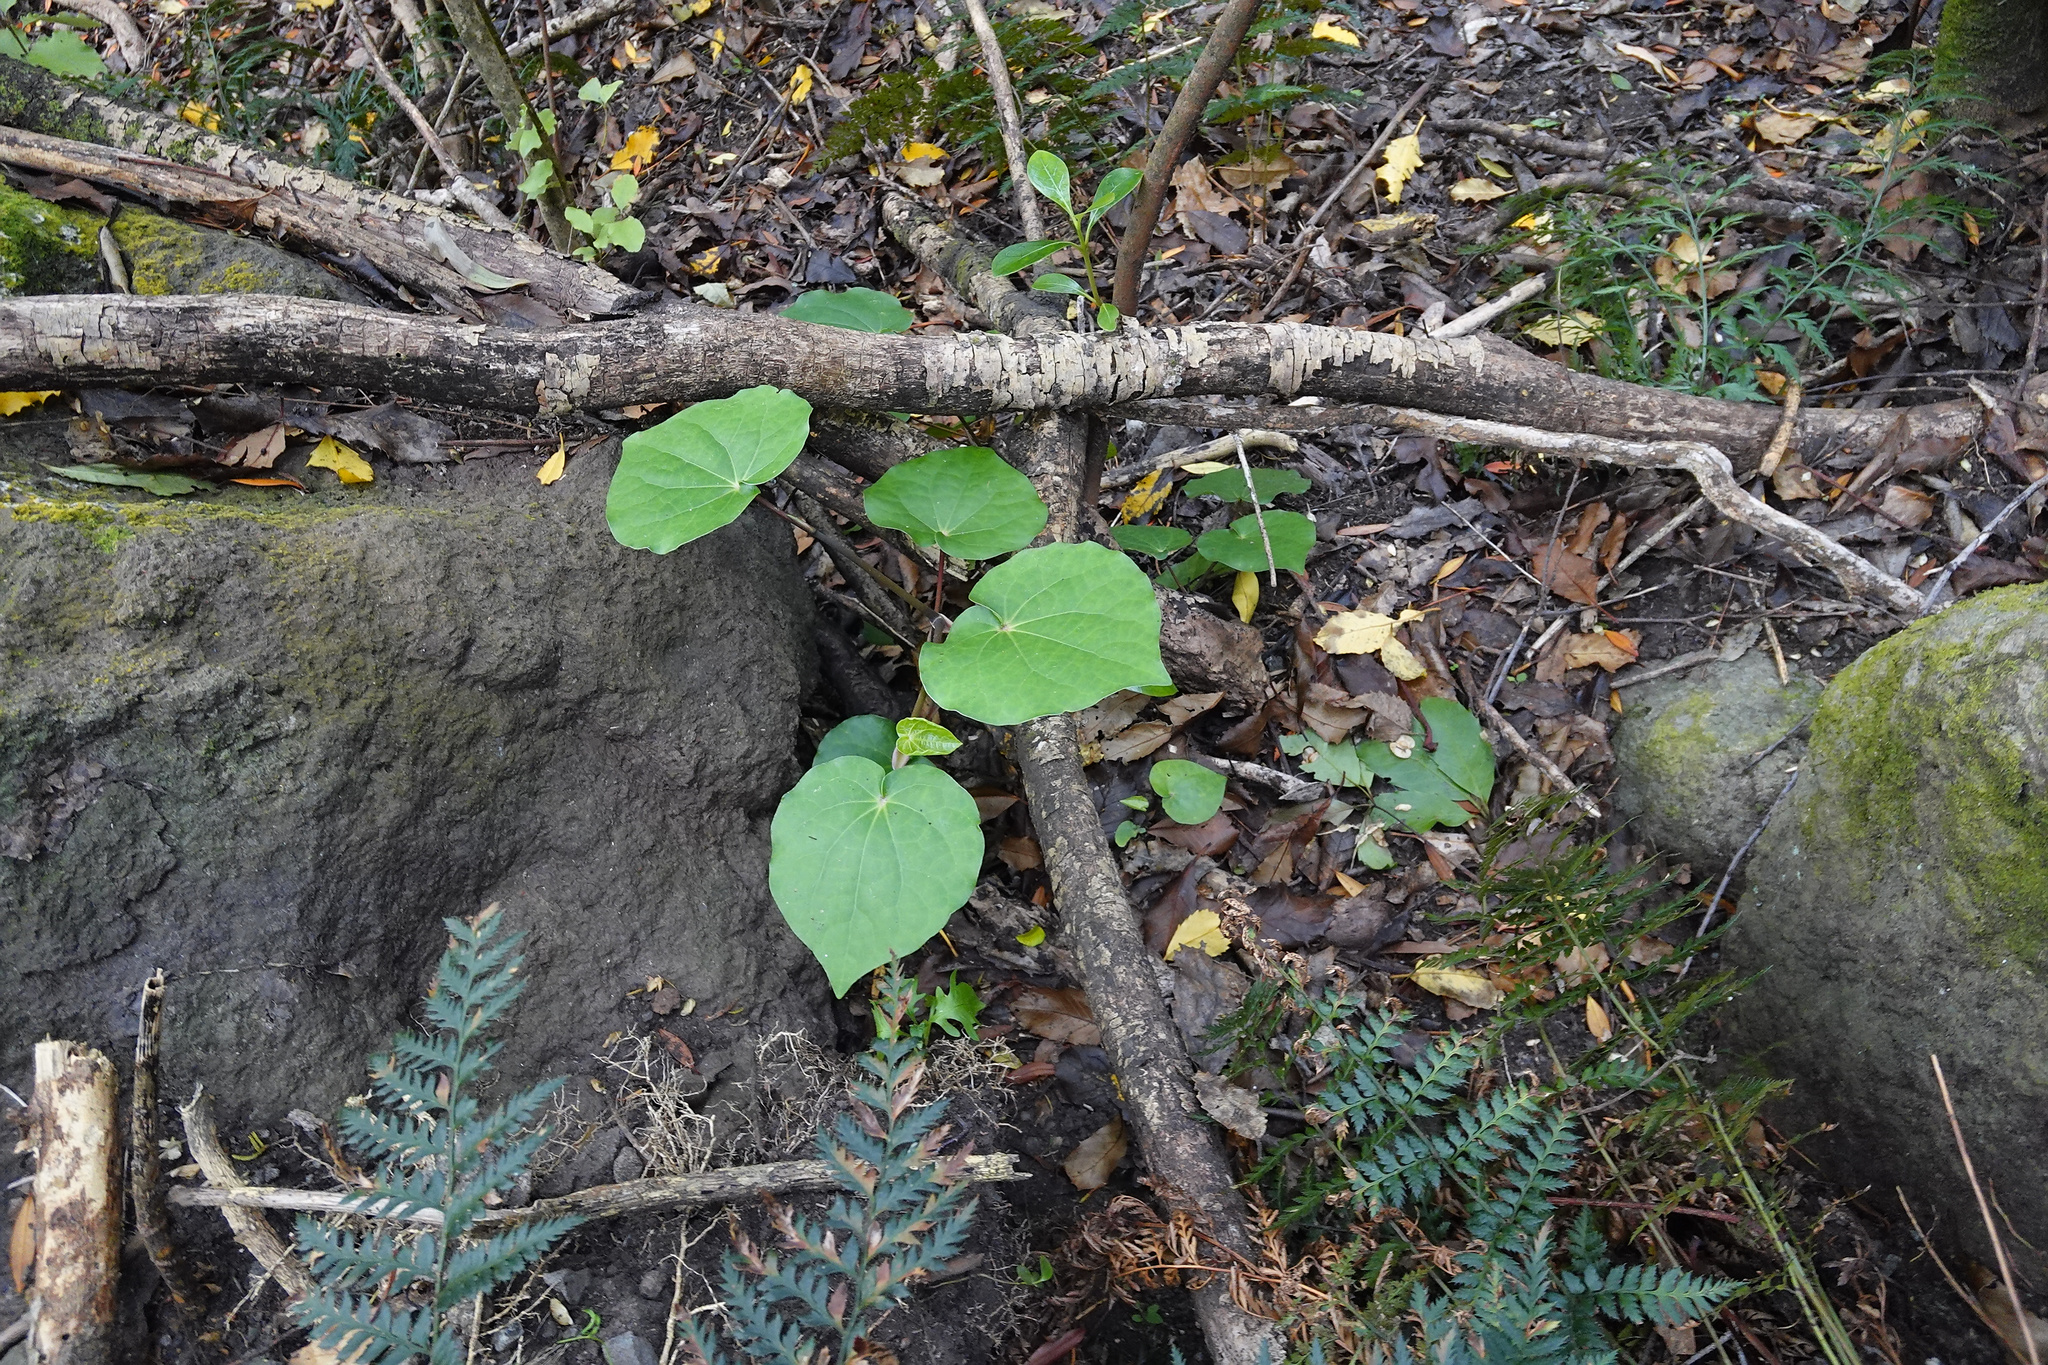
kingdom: Plantae
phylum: Tracheophyta
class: Magnoliopsida
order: Piperales
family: Piperaceae
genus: Macropiper
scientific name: Macropiper excelsum
